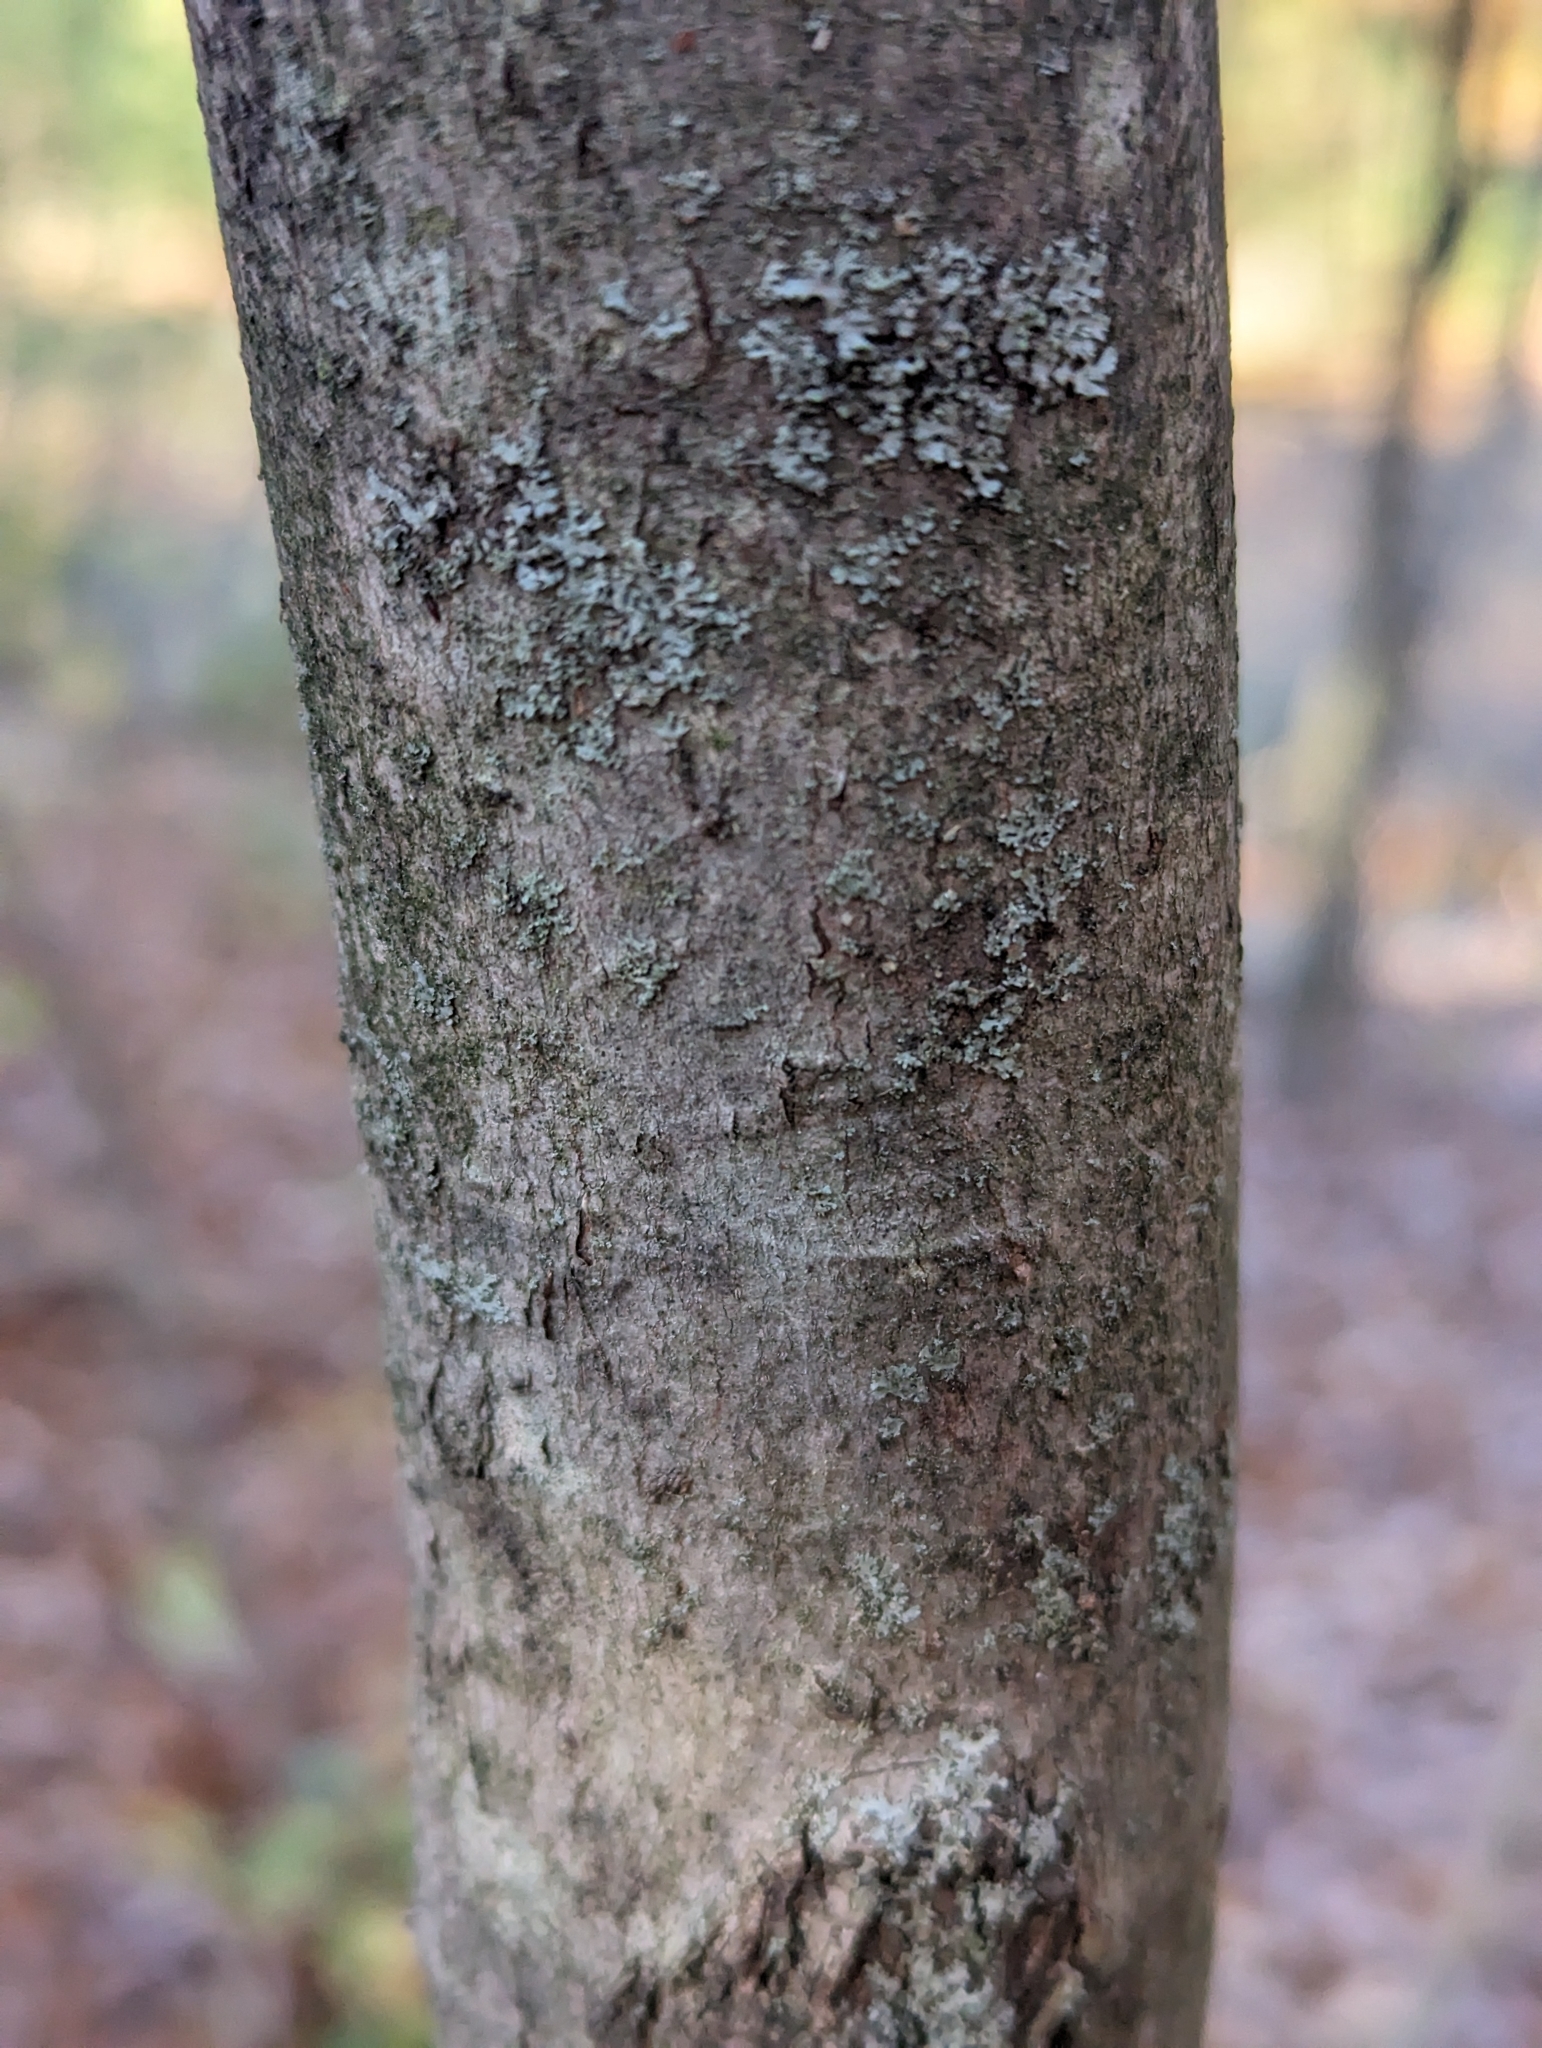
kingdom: Plantae
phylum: Tracheophyta
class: Magnoliopsida
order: Sapindales
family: Sapindaceae
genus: Acer
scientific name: Acer rubrum
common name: Red maple
